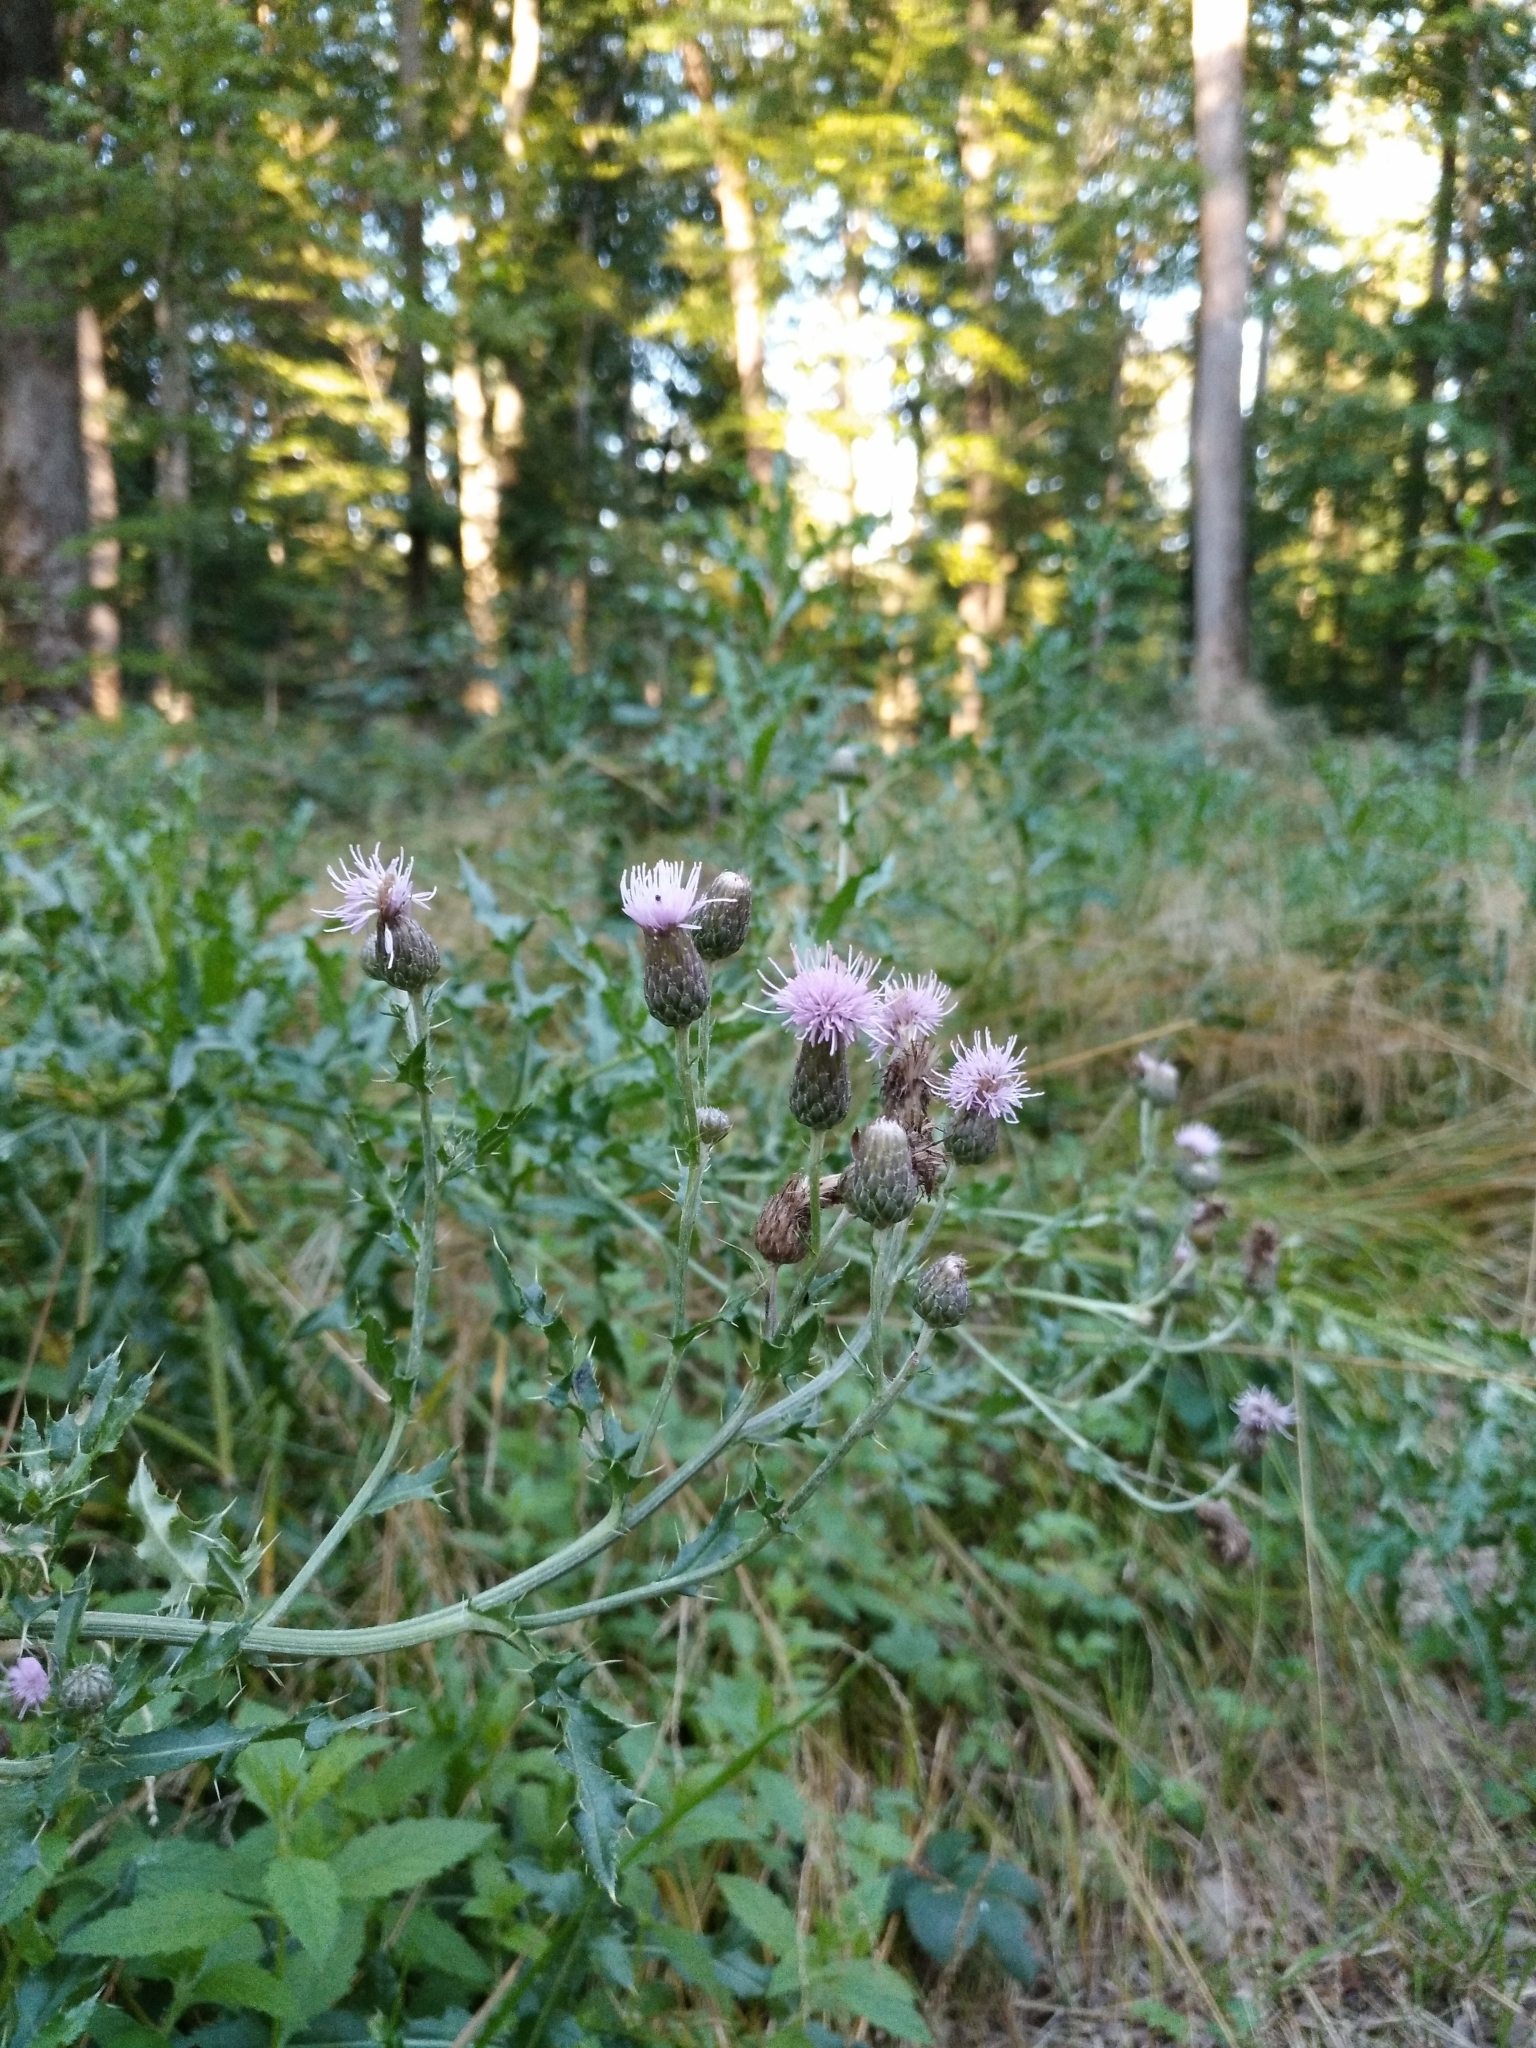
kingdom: Plantae
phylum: Tracheophyta
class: Magnoliopsida
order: Asterales
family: Asteraceae
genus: Cirsium
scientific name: Cirsium arvense
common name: Creeping thistle
